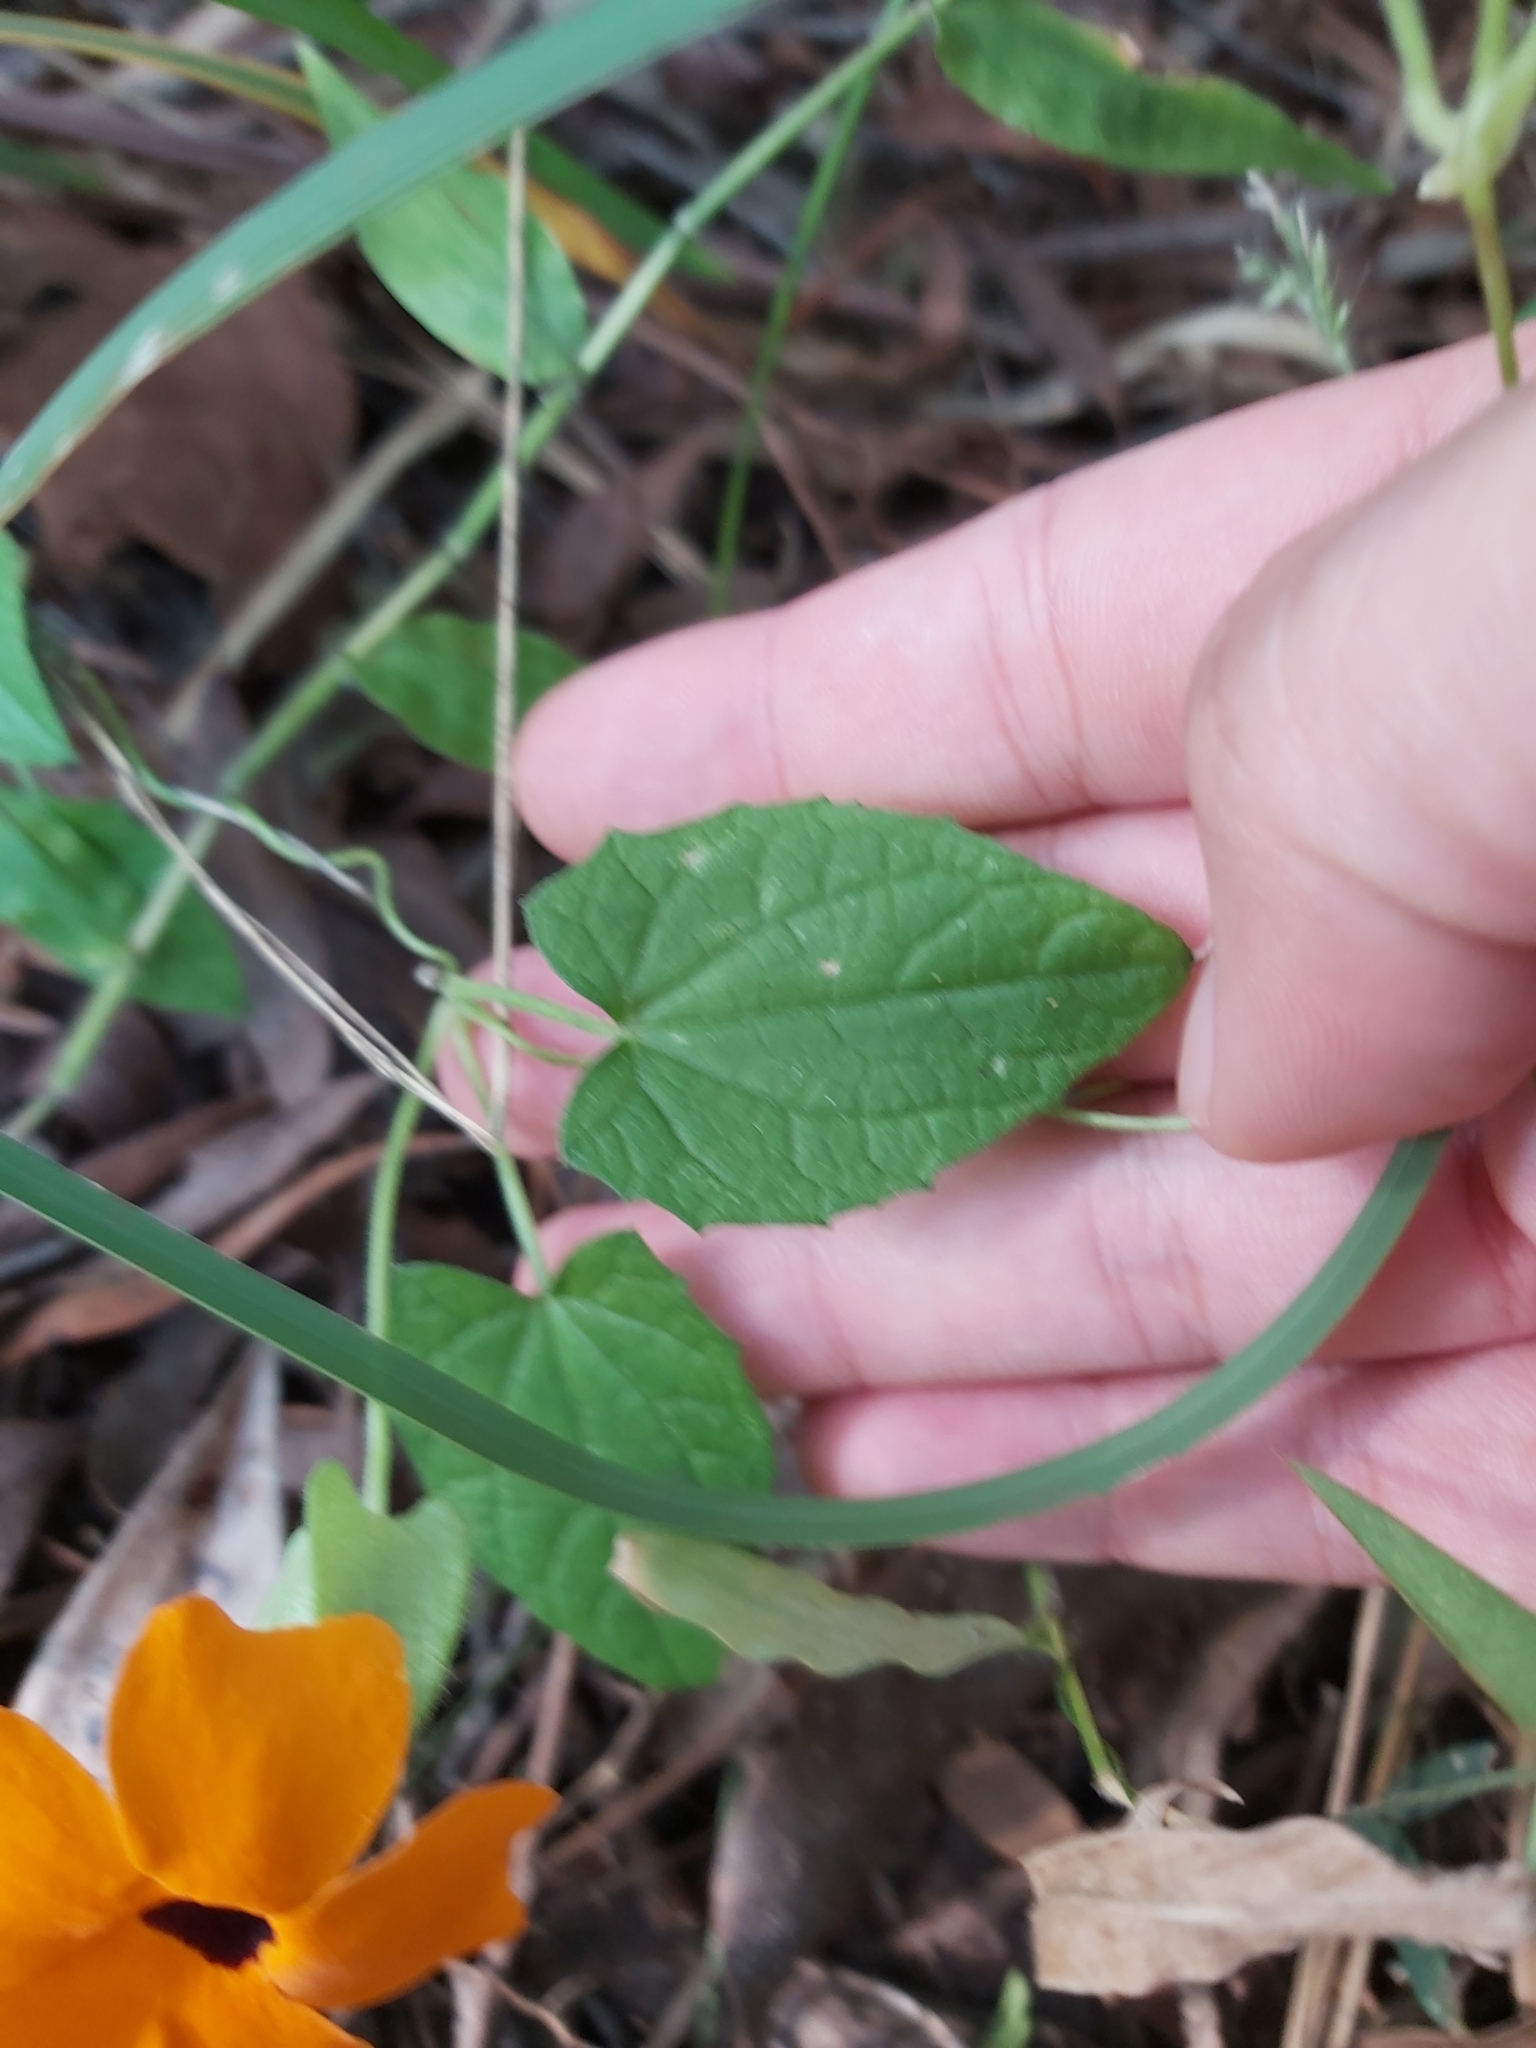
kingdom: Plantae
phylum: Tracheophyta
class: Magnoliopsida
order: Lamiales
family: Acanthaceae
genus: Thunbergia
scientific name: Thunbergia alata
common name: Blackeyed susan vine
